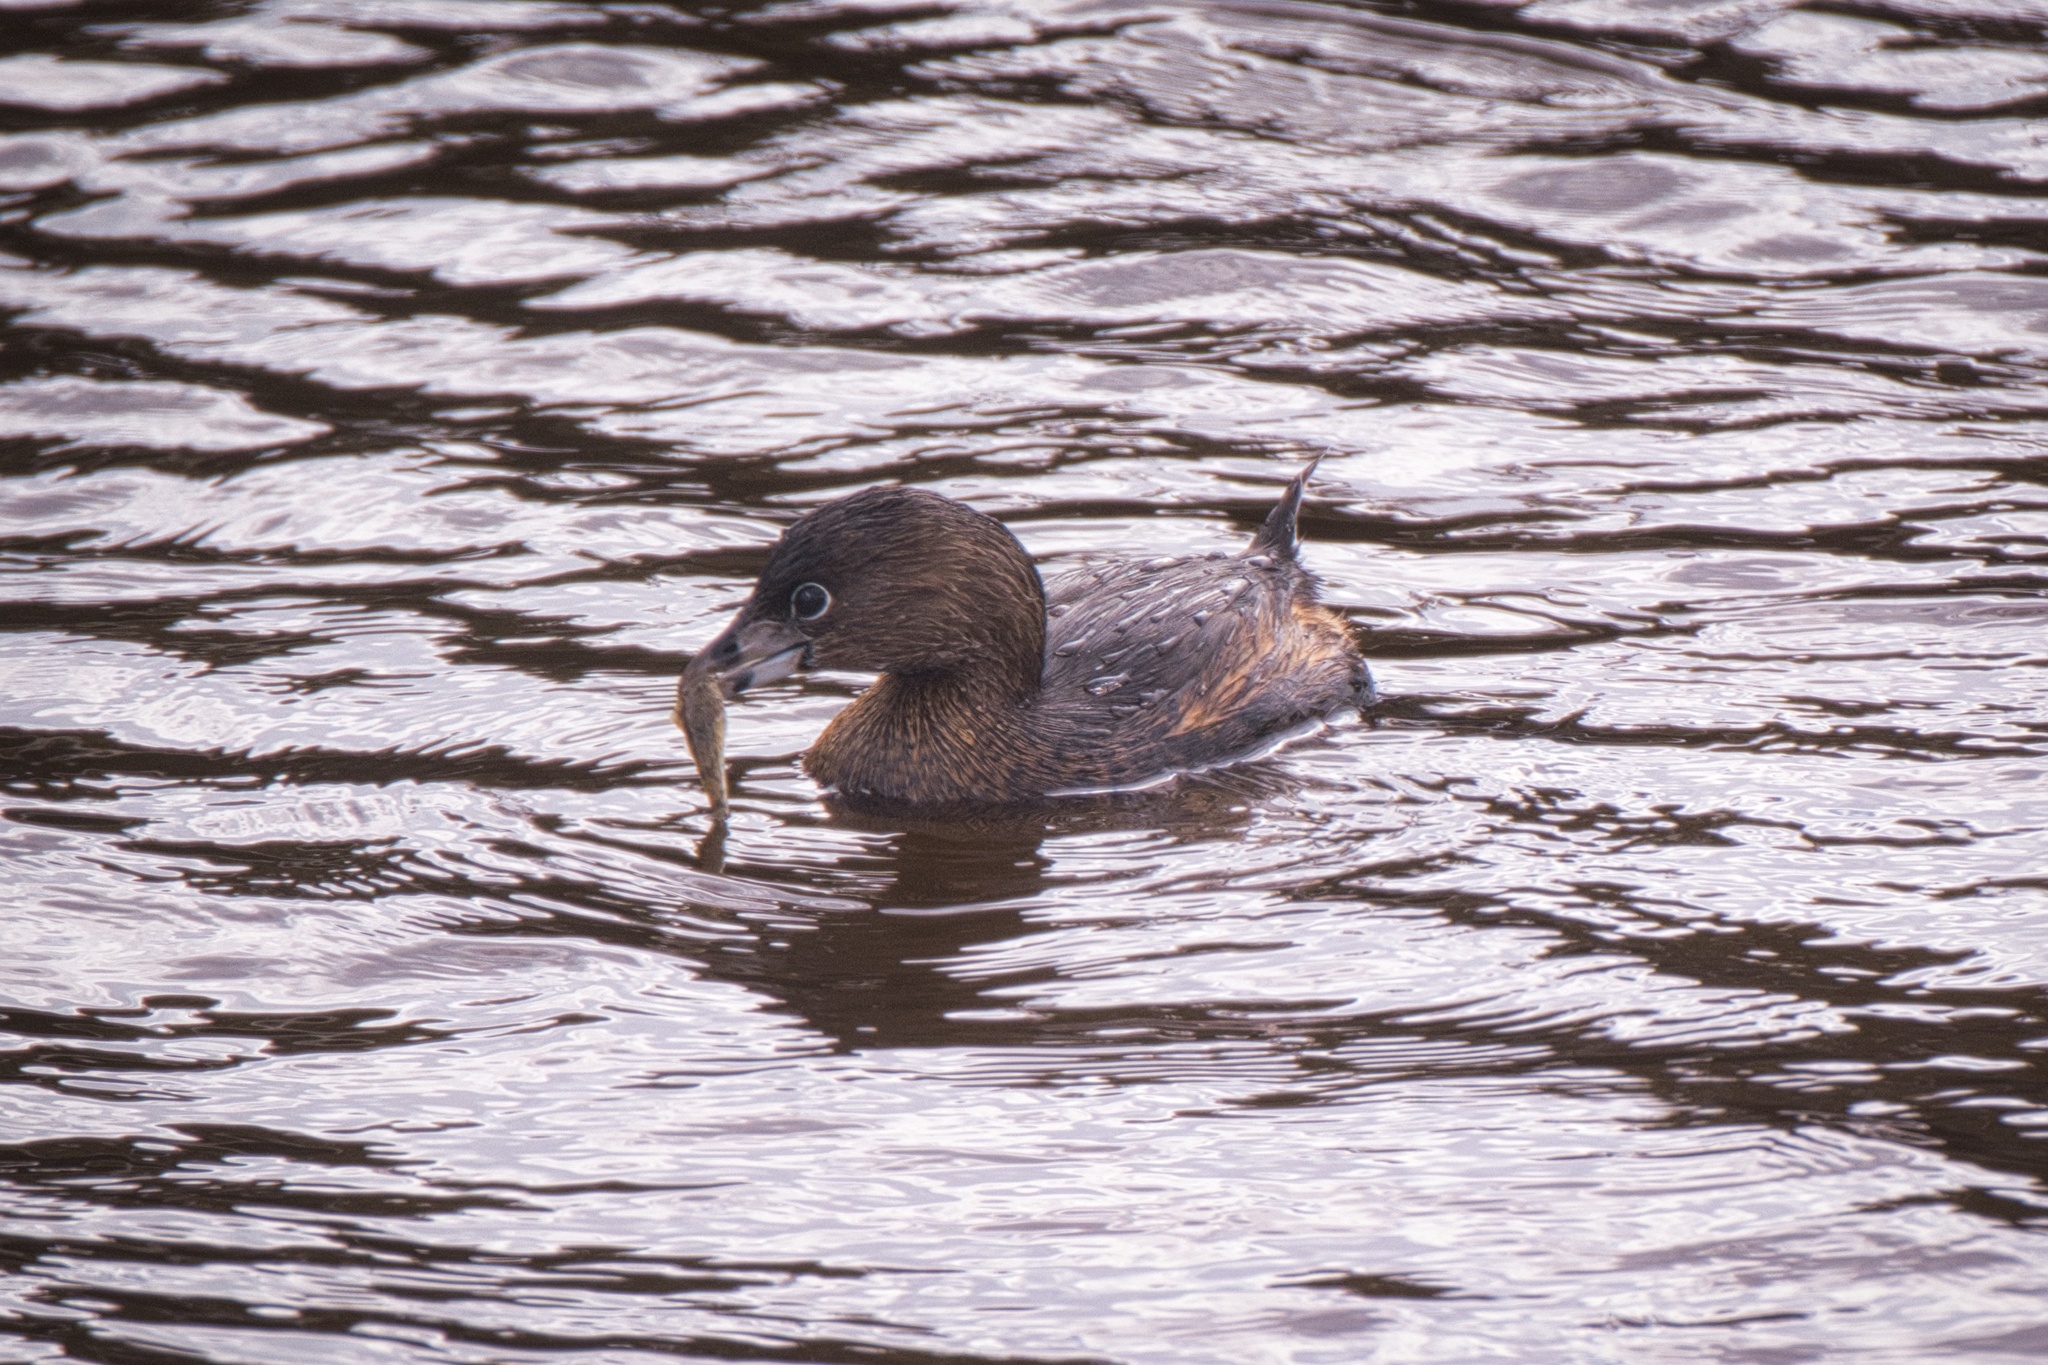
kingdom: Animalia
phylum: Chordata
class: Aves
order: Podicipediformes
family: Podicipedidae
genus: Podilymbus
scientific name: Podilymbus podiceps
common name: Pied-billed grebe
